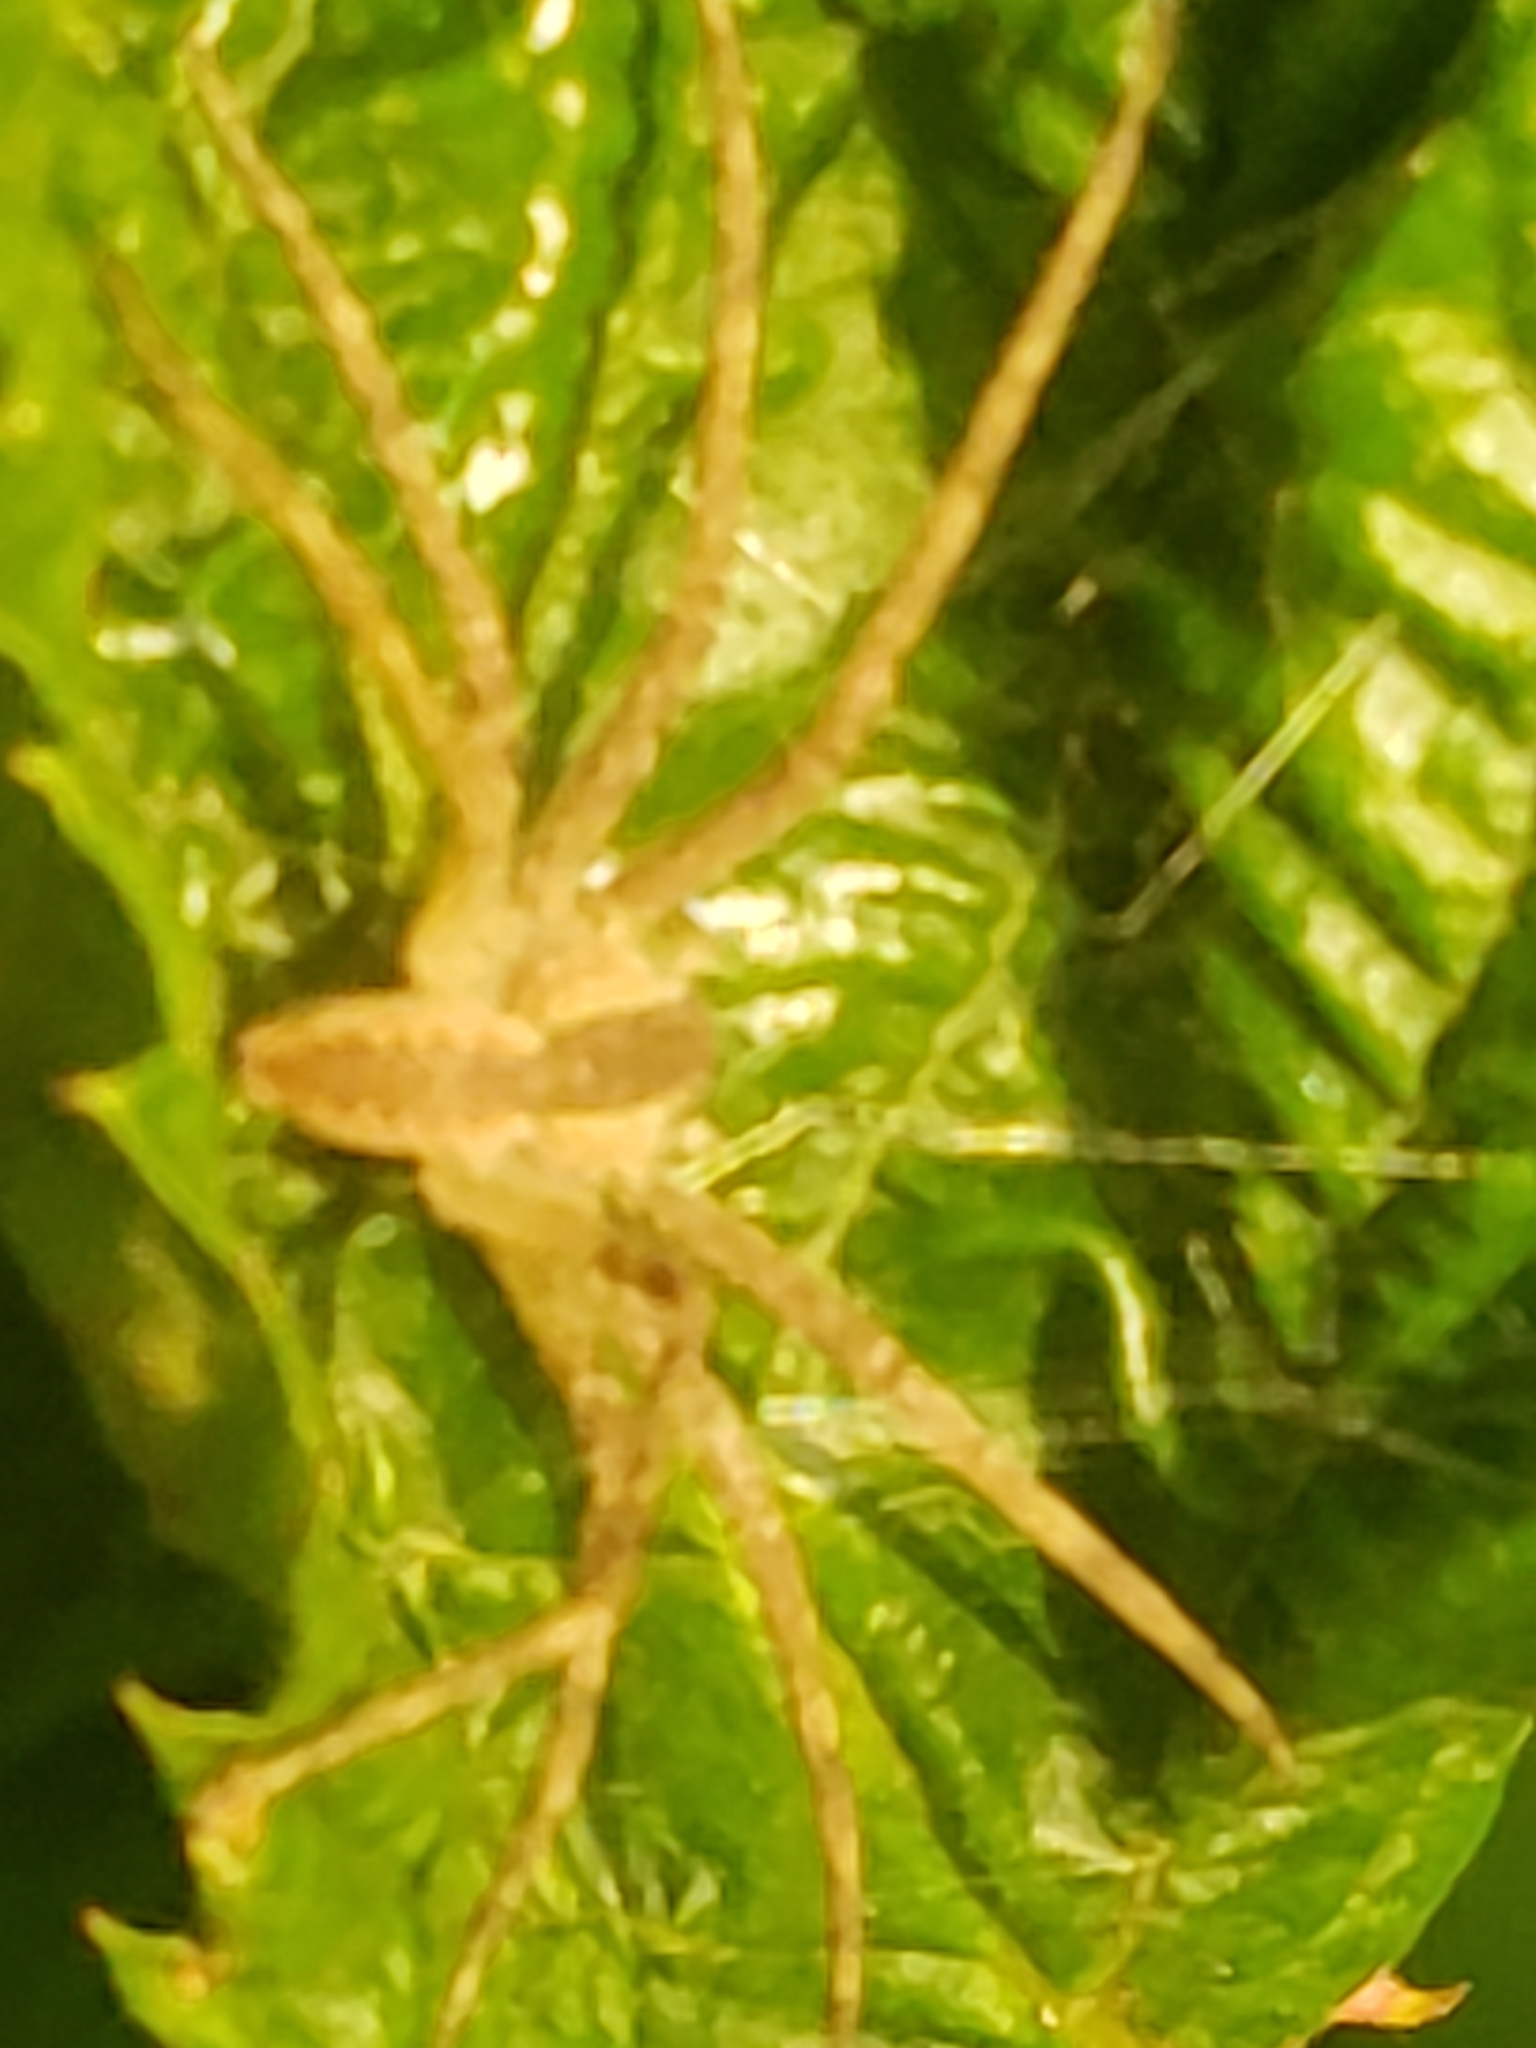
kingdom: Animalia
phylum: Arthropoda
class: Arachnida
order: Araneae
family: Pisauridae
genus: Pisaurina
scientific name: Pisaurina mira
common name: American nursery web spider
